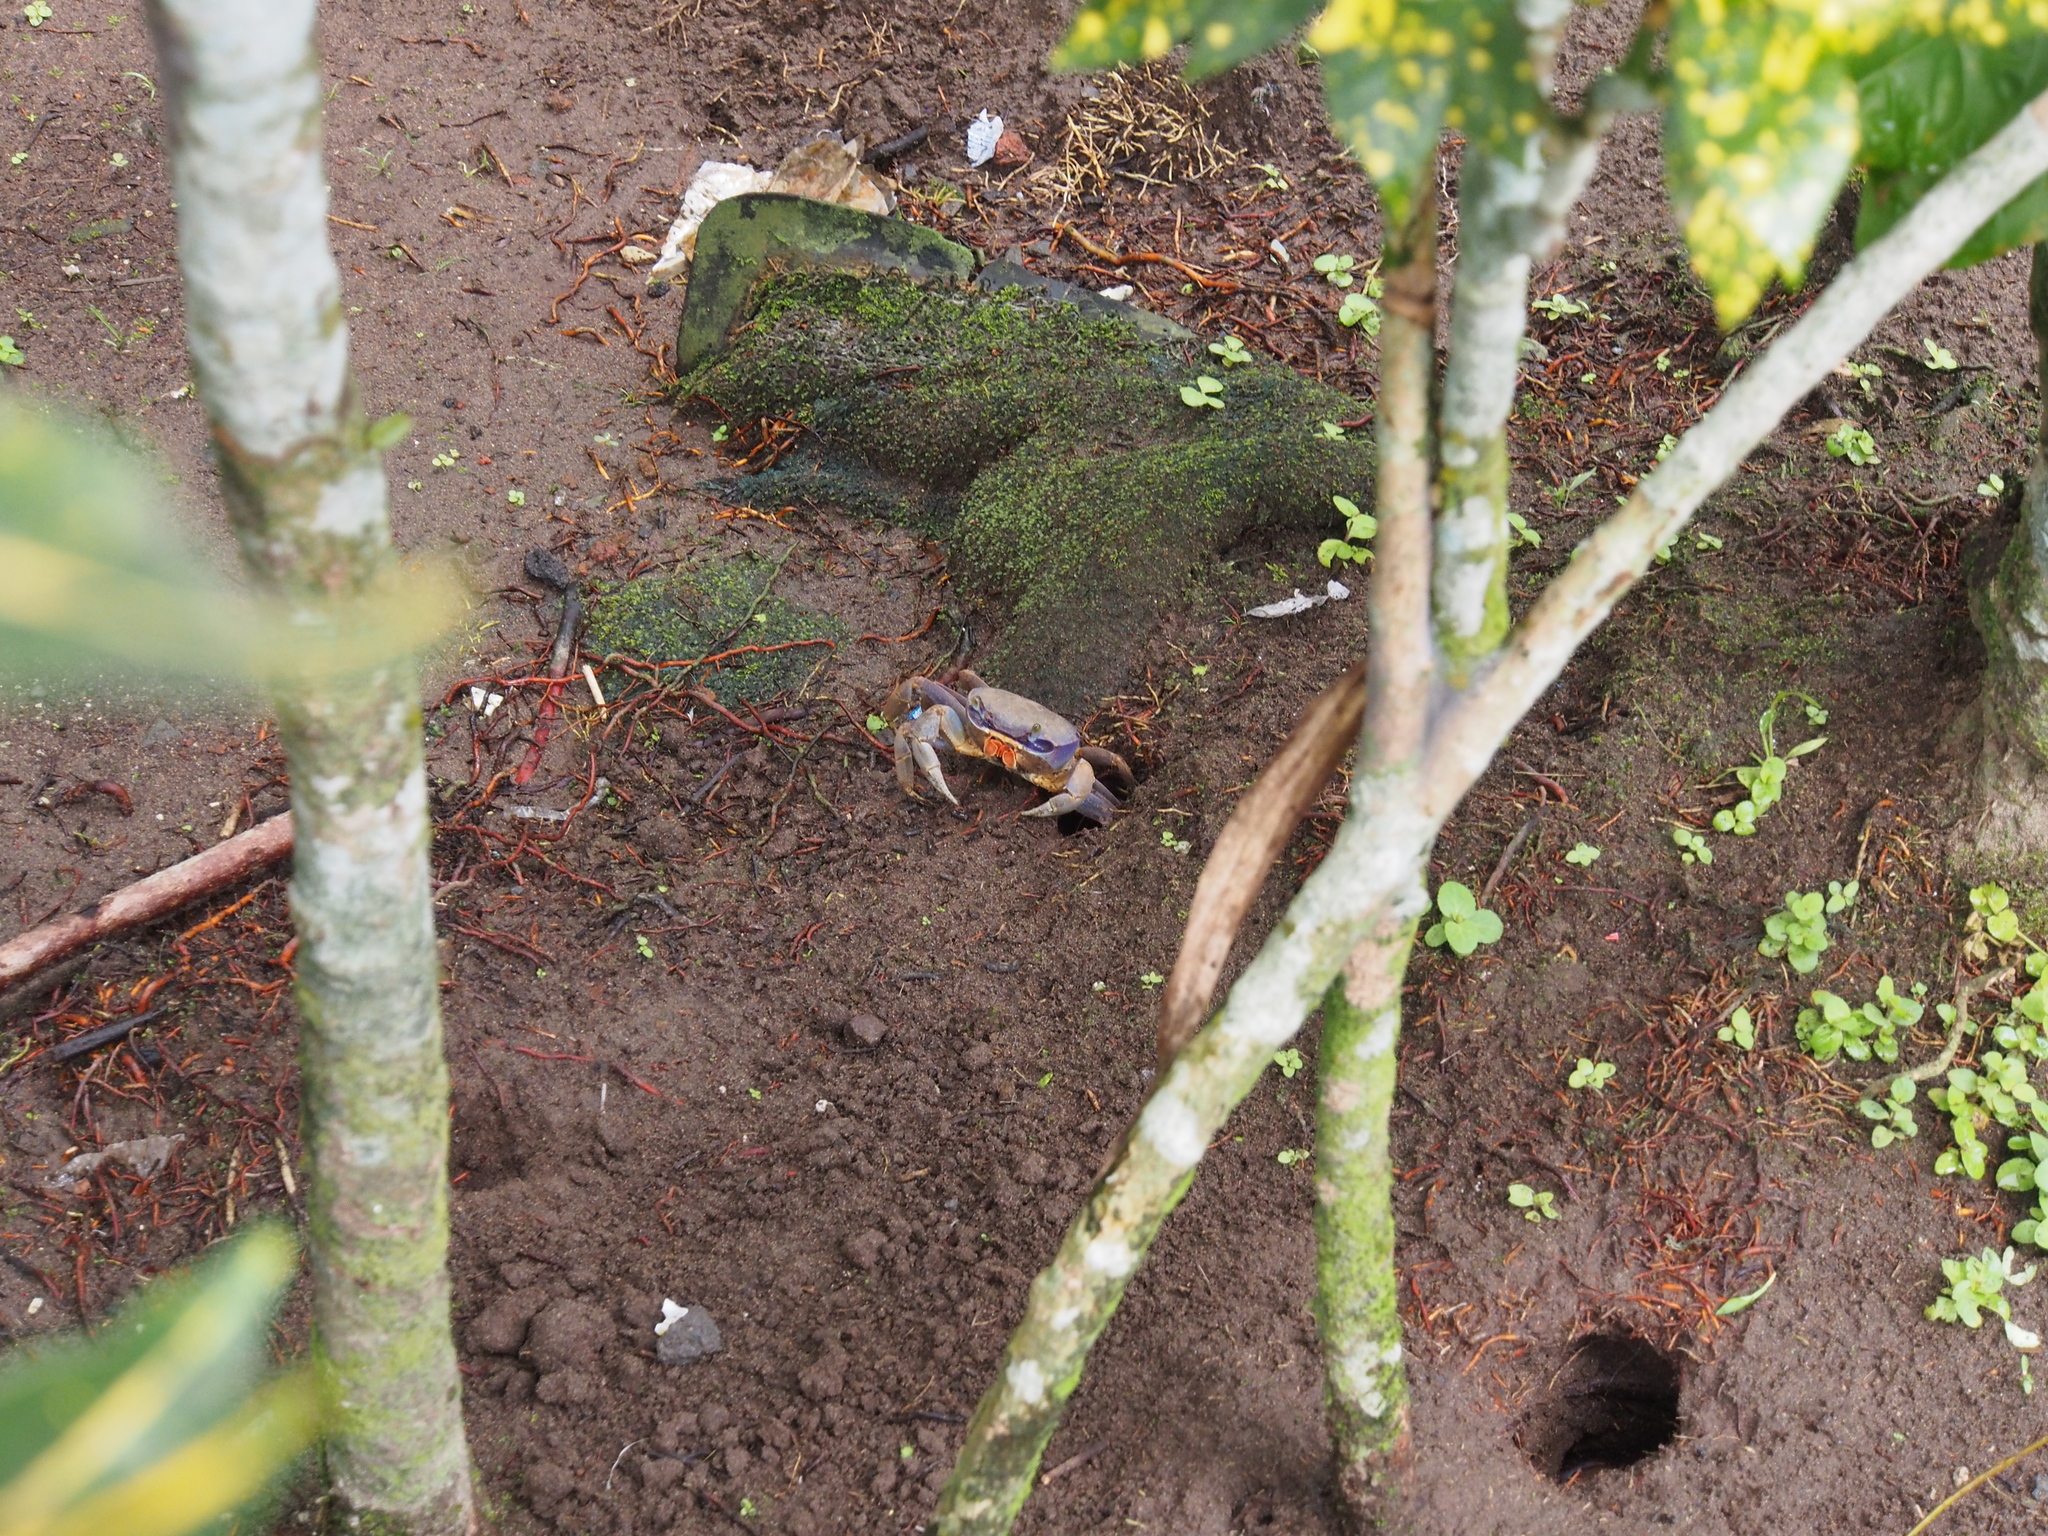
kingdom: Animalia
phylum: Arthropoda
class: Malacostraca
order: Decapoda
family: Gecarcinidae
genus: Cardisoma
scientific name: Cardisoma guanhumi
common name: Great land crab
